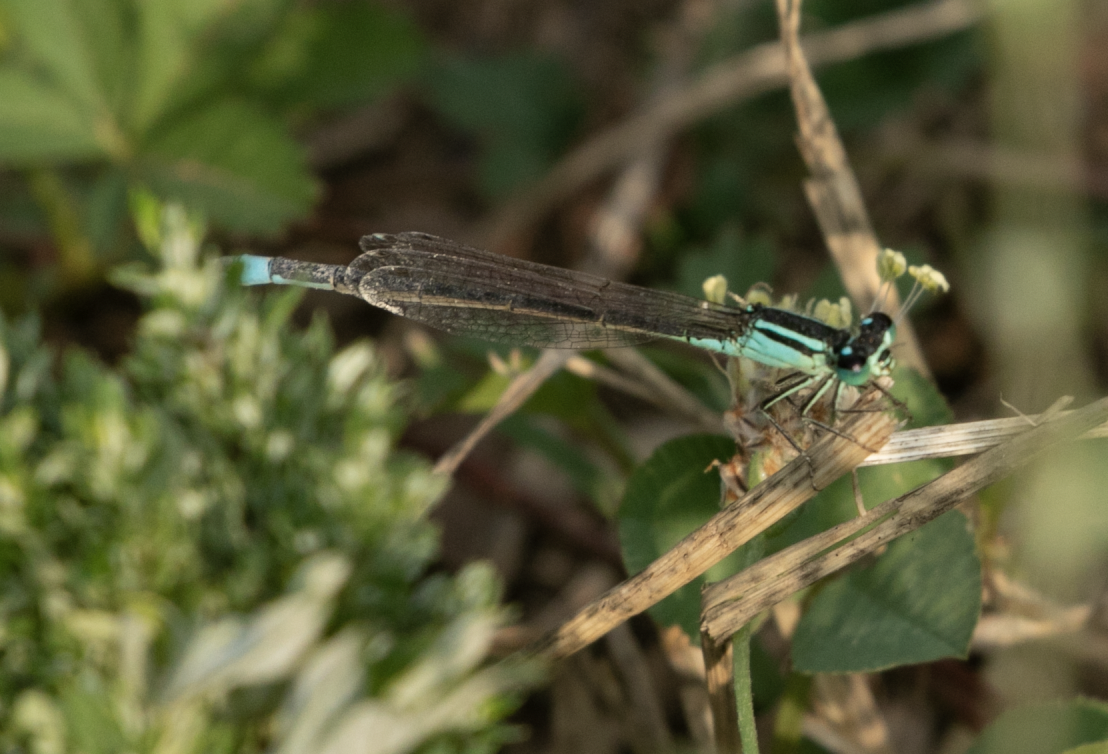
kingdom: Animalia
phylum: Arthropoda
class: Insecta
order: Odonata
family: Coenagrionidae
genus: Ischnura
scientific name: Ischnura elegans
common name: Blue-tailed damselfly
